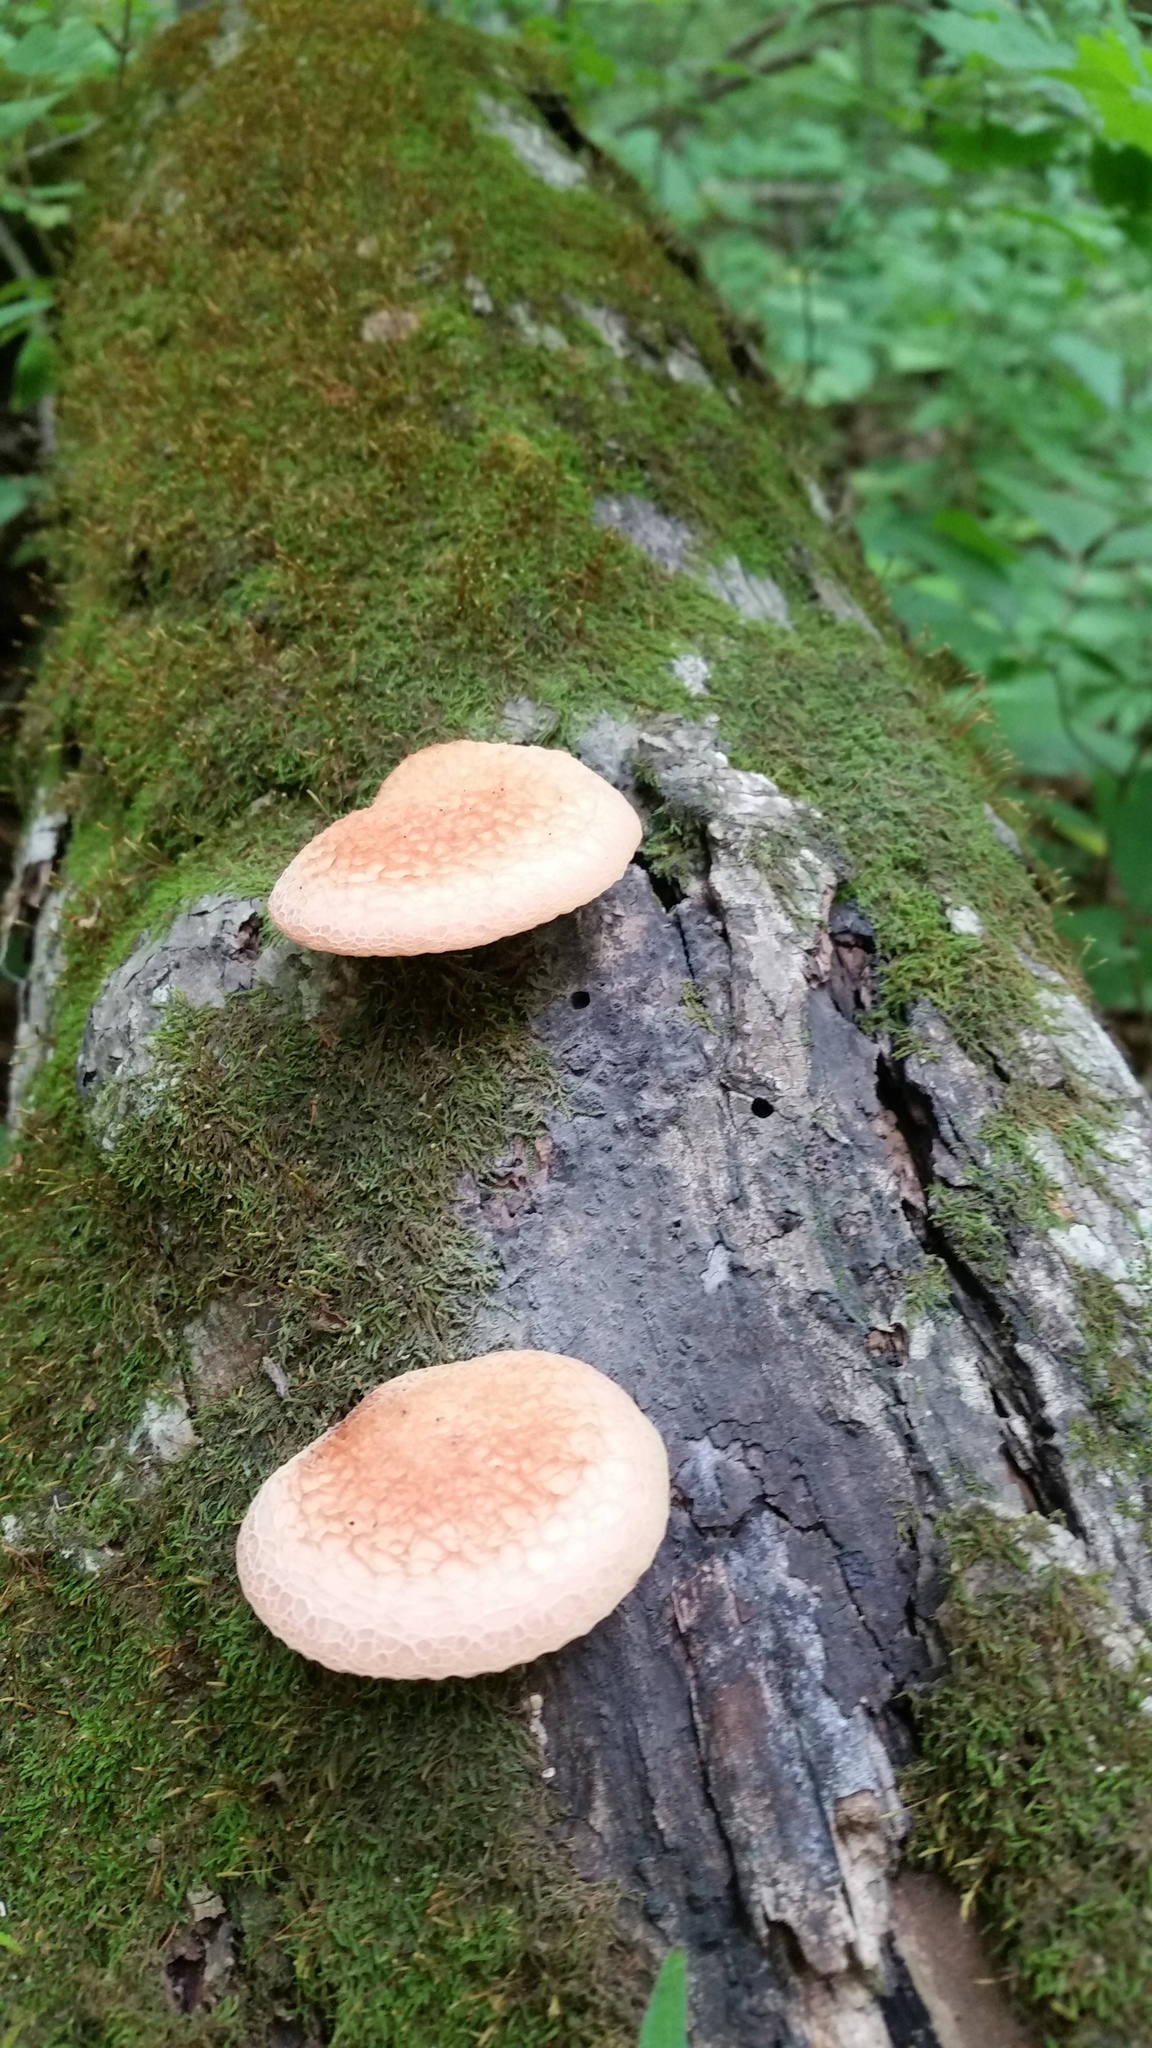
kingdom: Fungi
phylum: Basidiomycota
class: Agaricomycetes
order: Agaricales
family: Physalacriaceae
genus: Rhodotus
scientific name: Rhodotus palmatus
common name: Wrinkled peach
